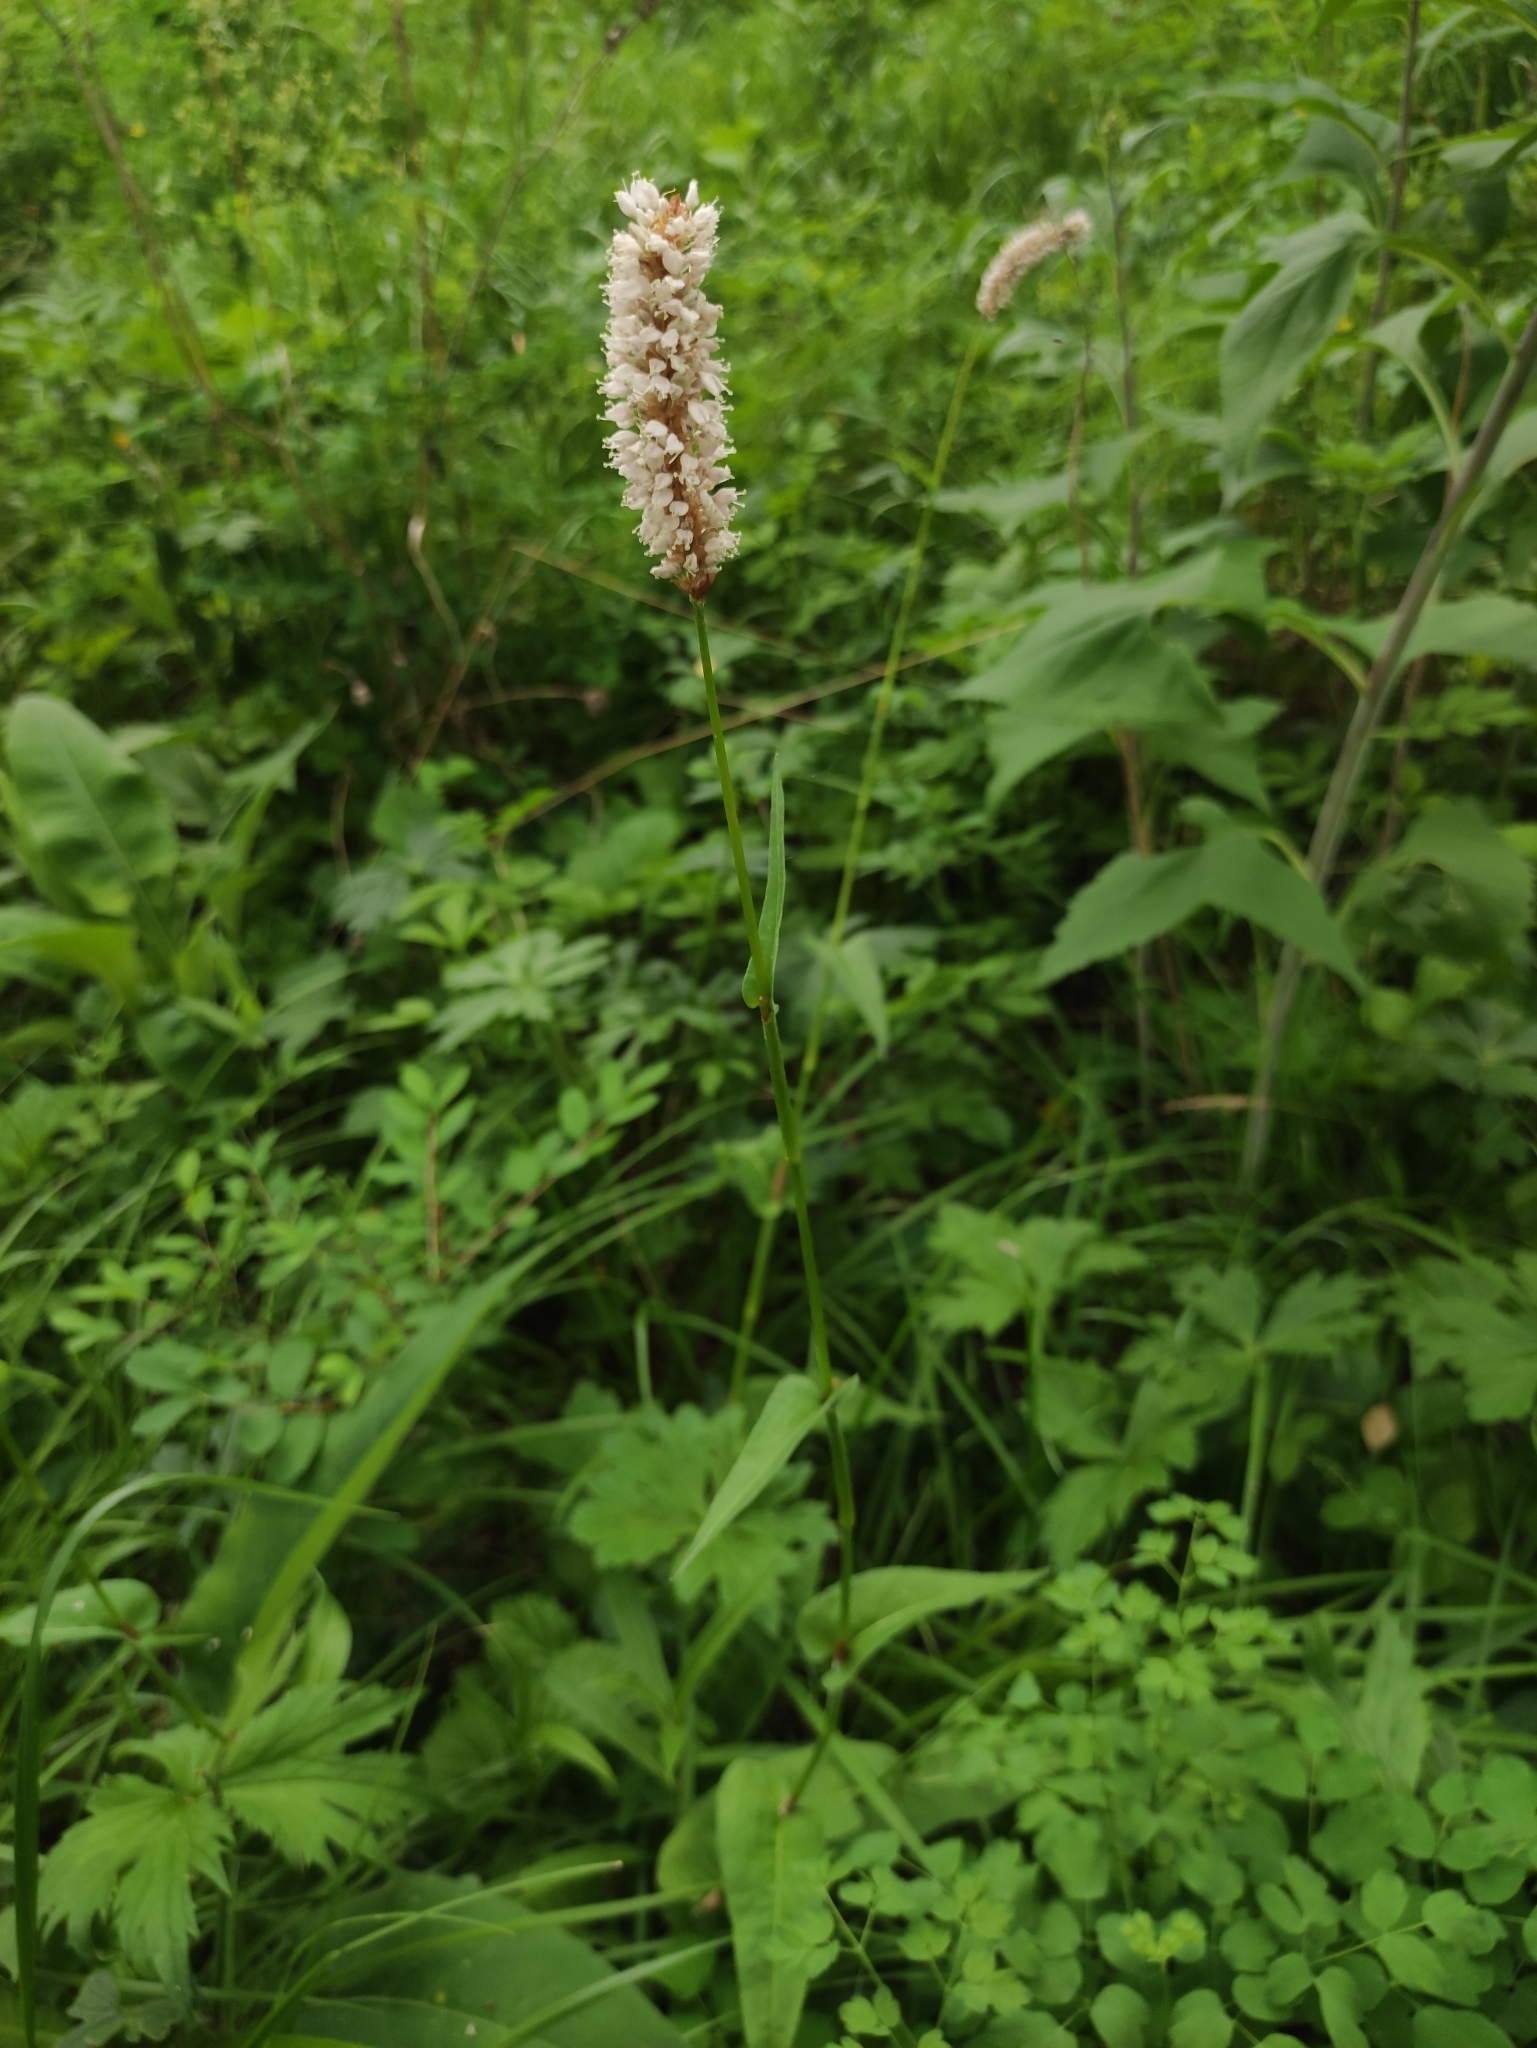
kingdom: Plantae
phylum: Tracheophyta
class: Magnoliopsida
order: Caryophyllales
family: Polygonaceae
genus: Bistorta
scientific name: Bistorta officinalis
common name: Common bistort
